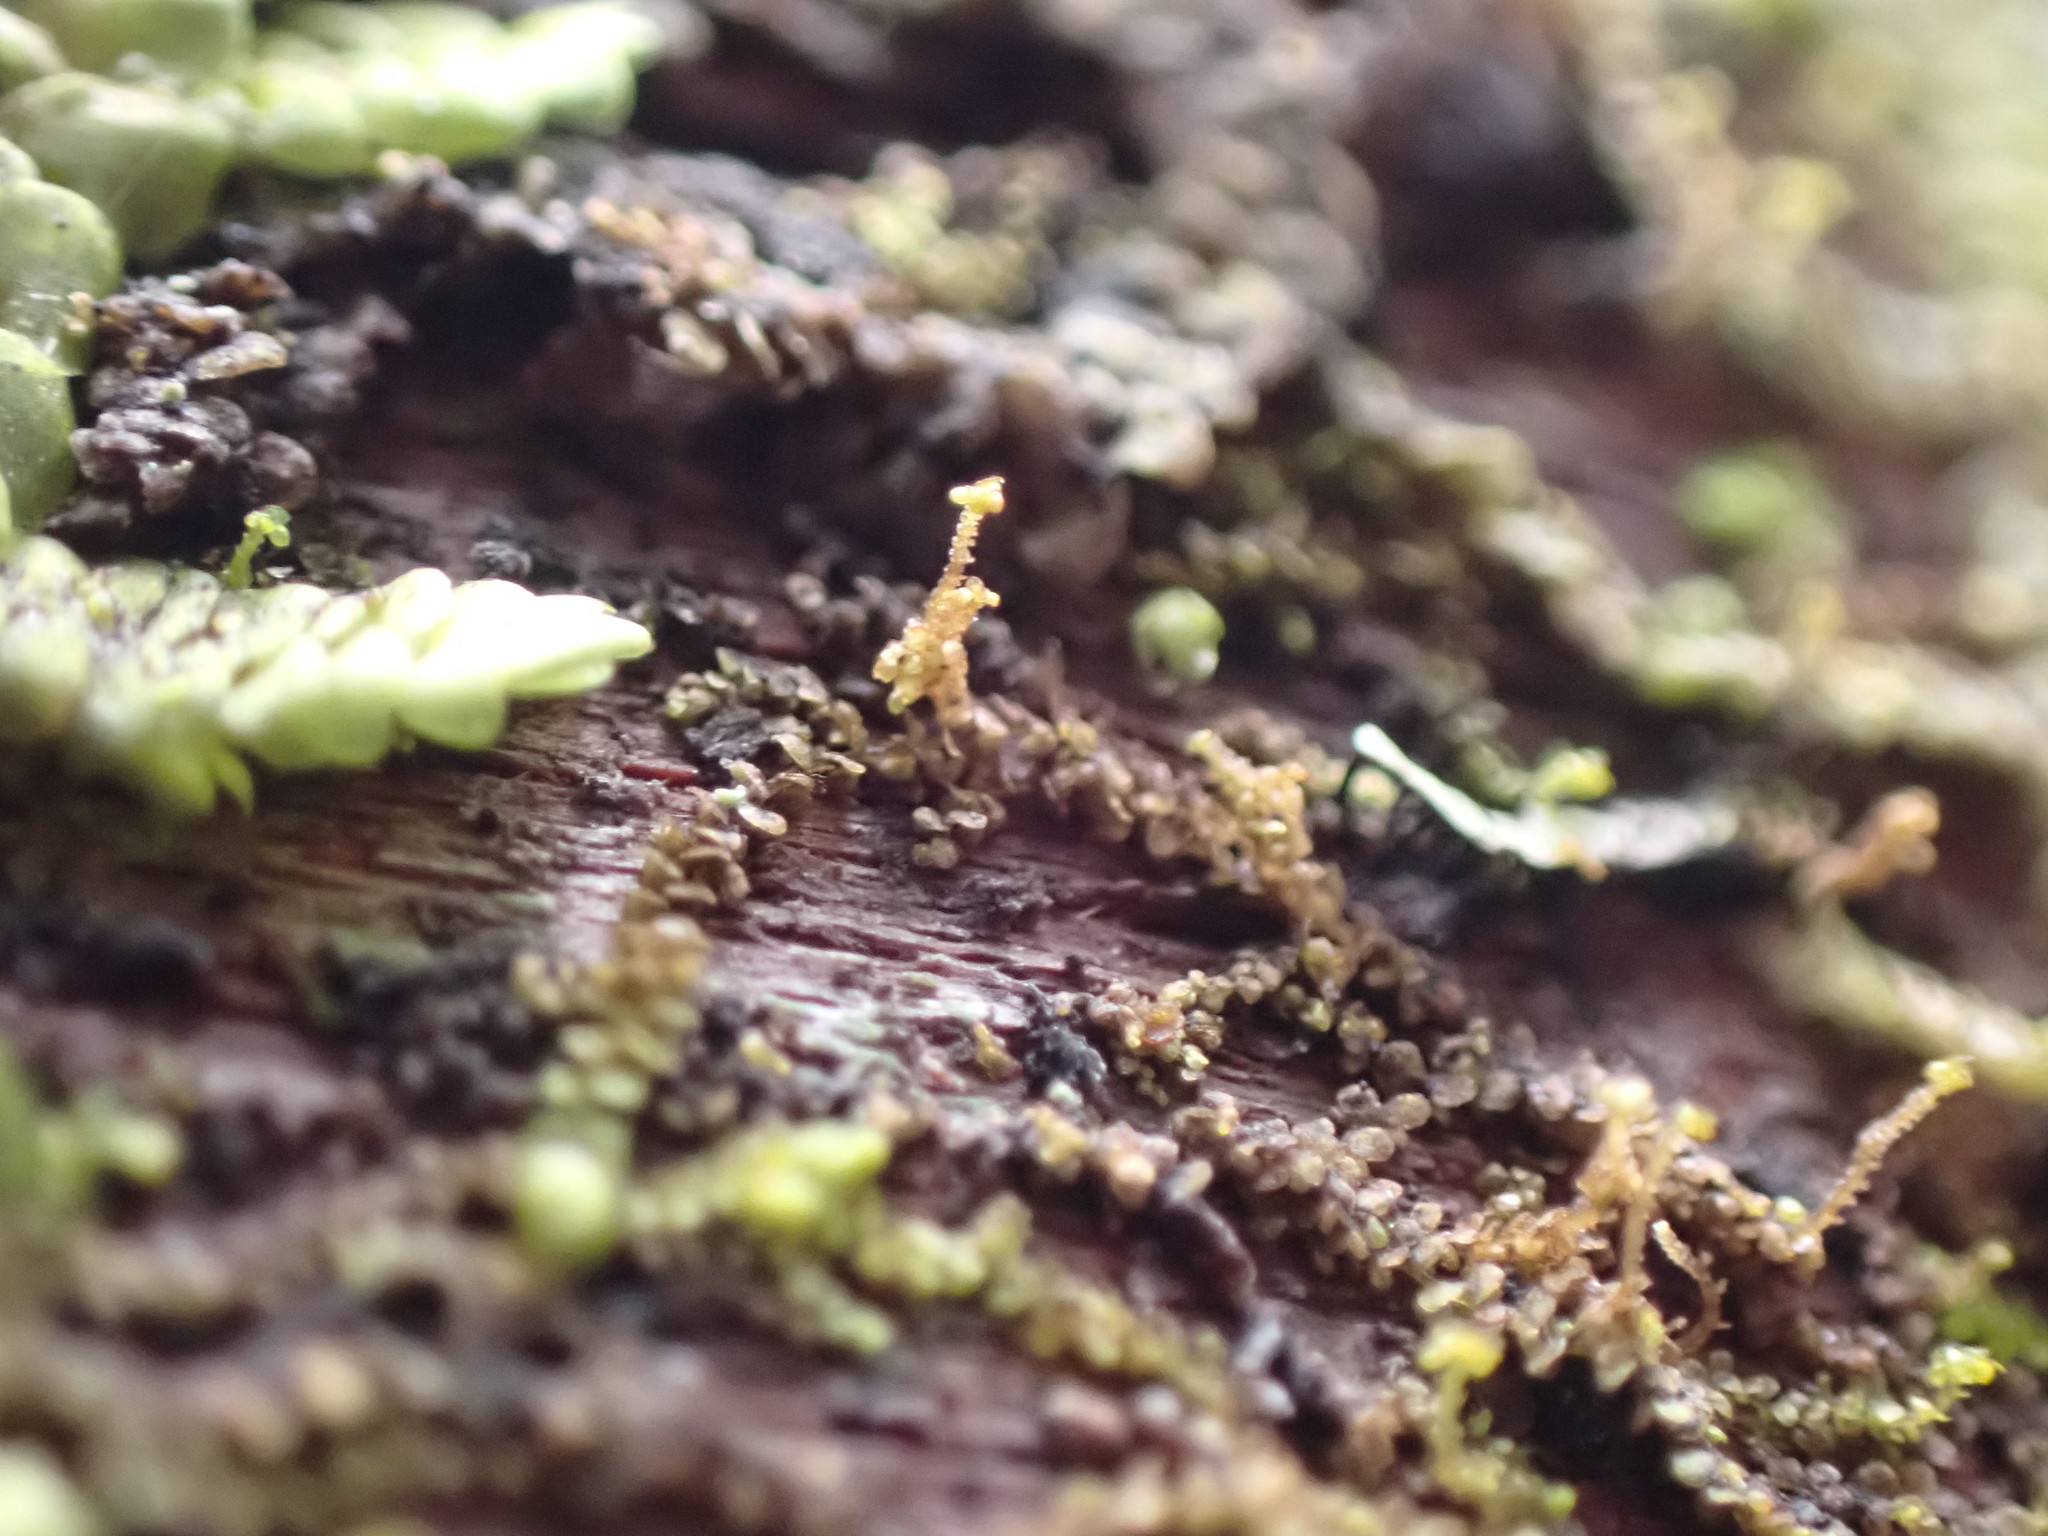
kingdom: Plantae
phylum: Marchantiophyta
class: Jungermanniopsida
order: Porellales
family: Frullaniaceae
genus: Frullania
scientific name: Frullania bolanderi
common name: Bolander s scalewort
